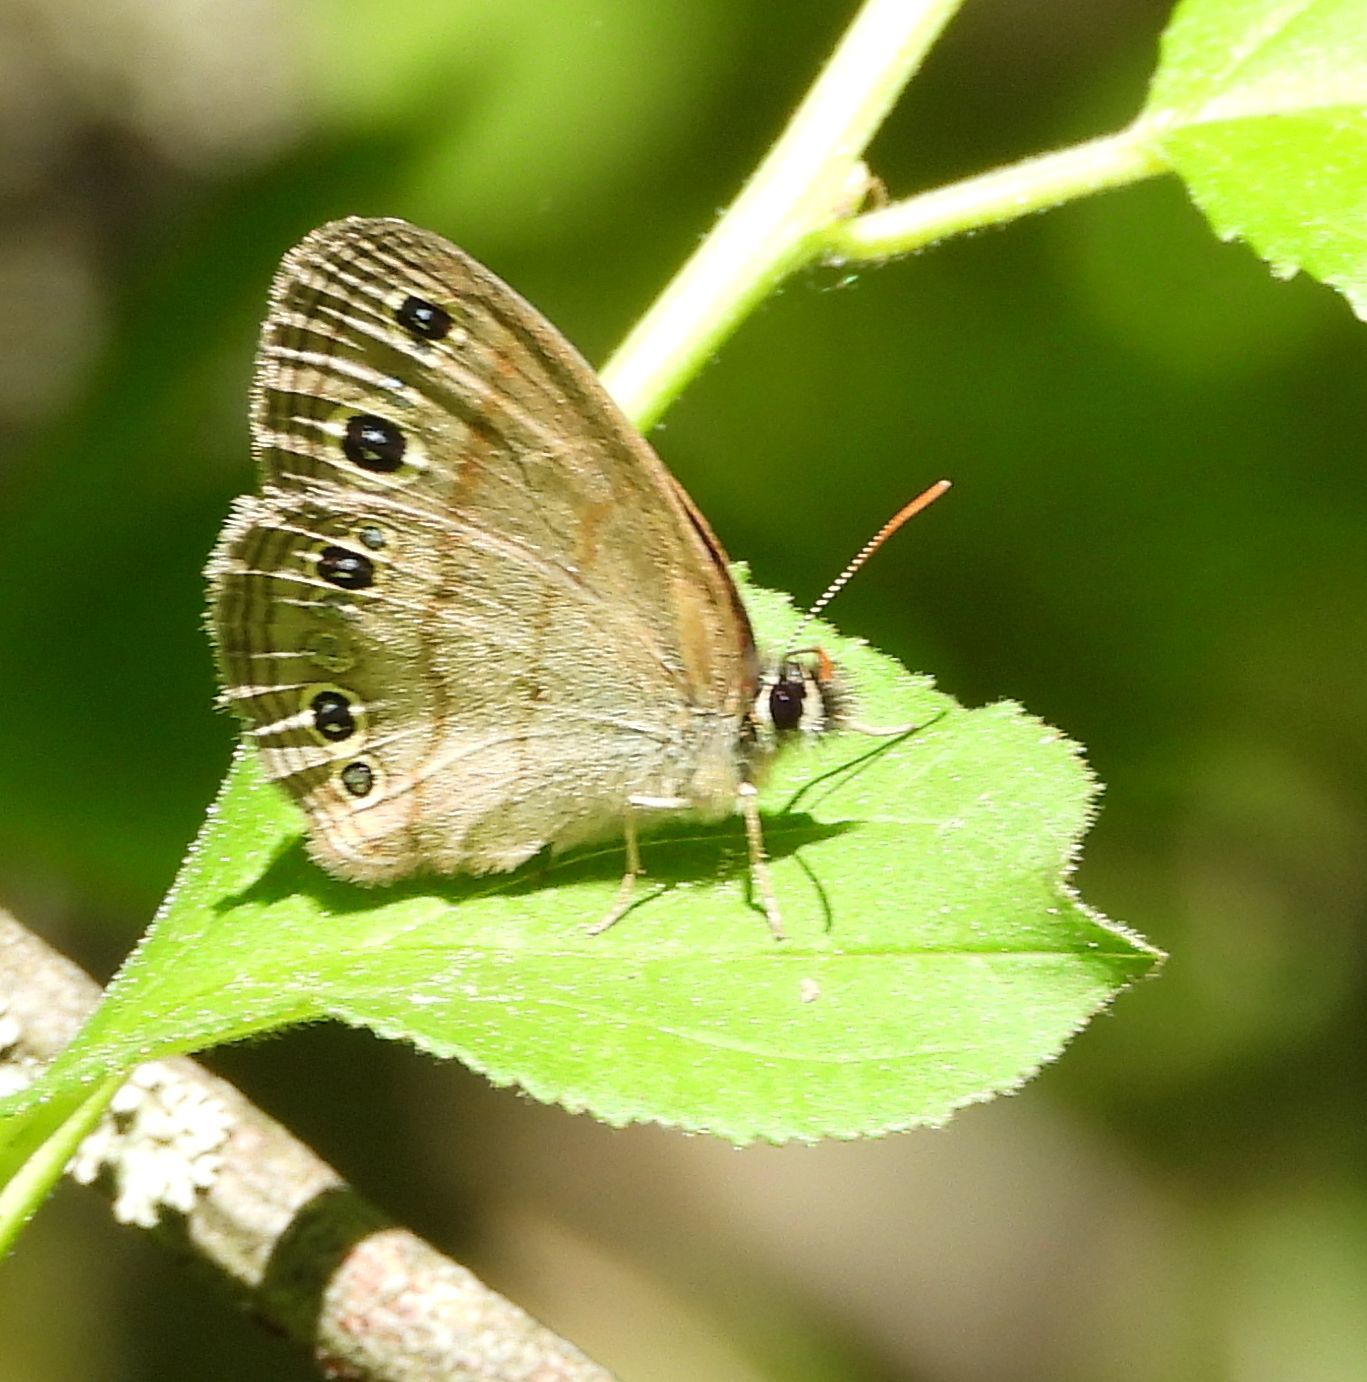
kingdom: Animalia
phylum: Arthropoda
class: Insecta
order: Lepidoptera
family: Nymphalidae
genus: Euptychia
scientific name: Euptychia cymela
